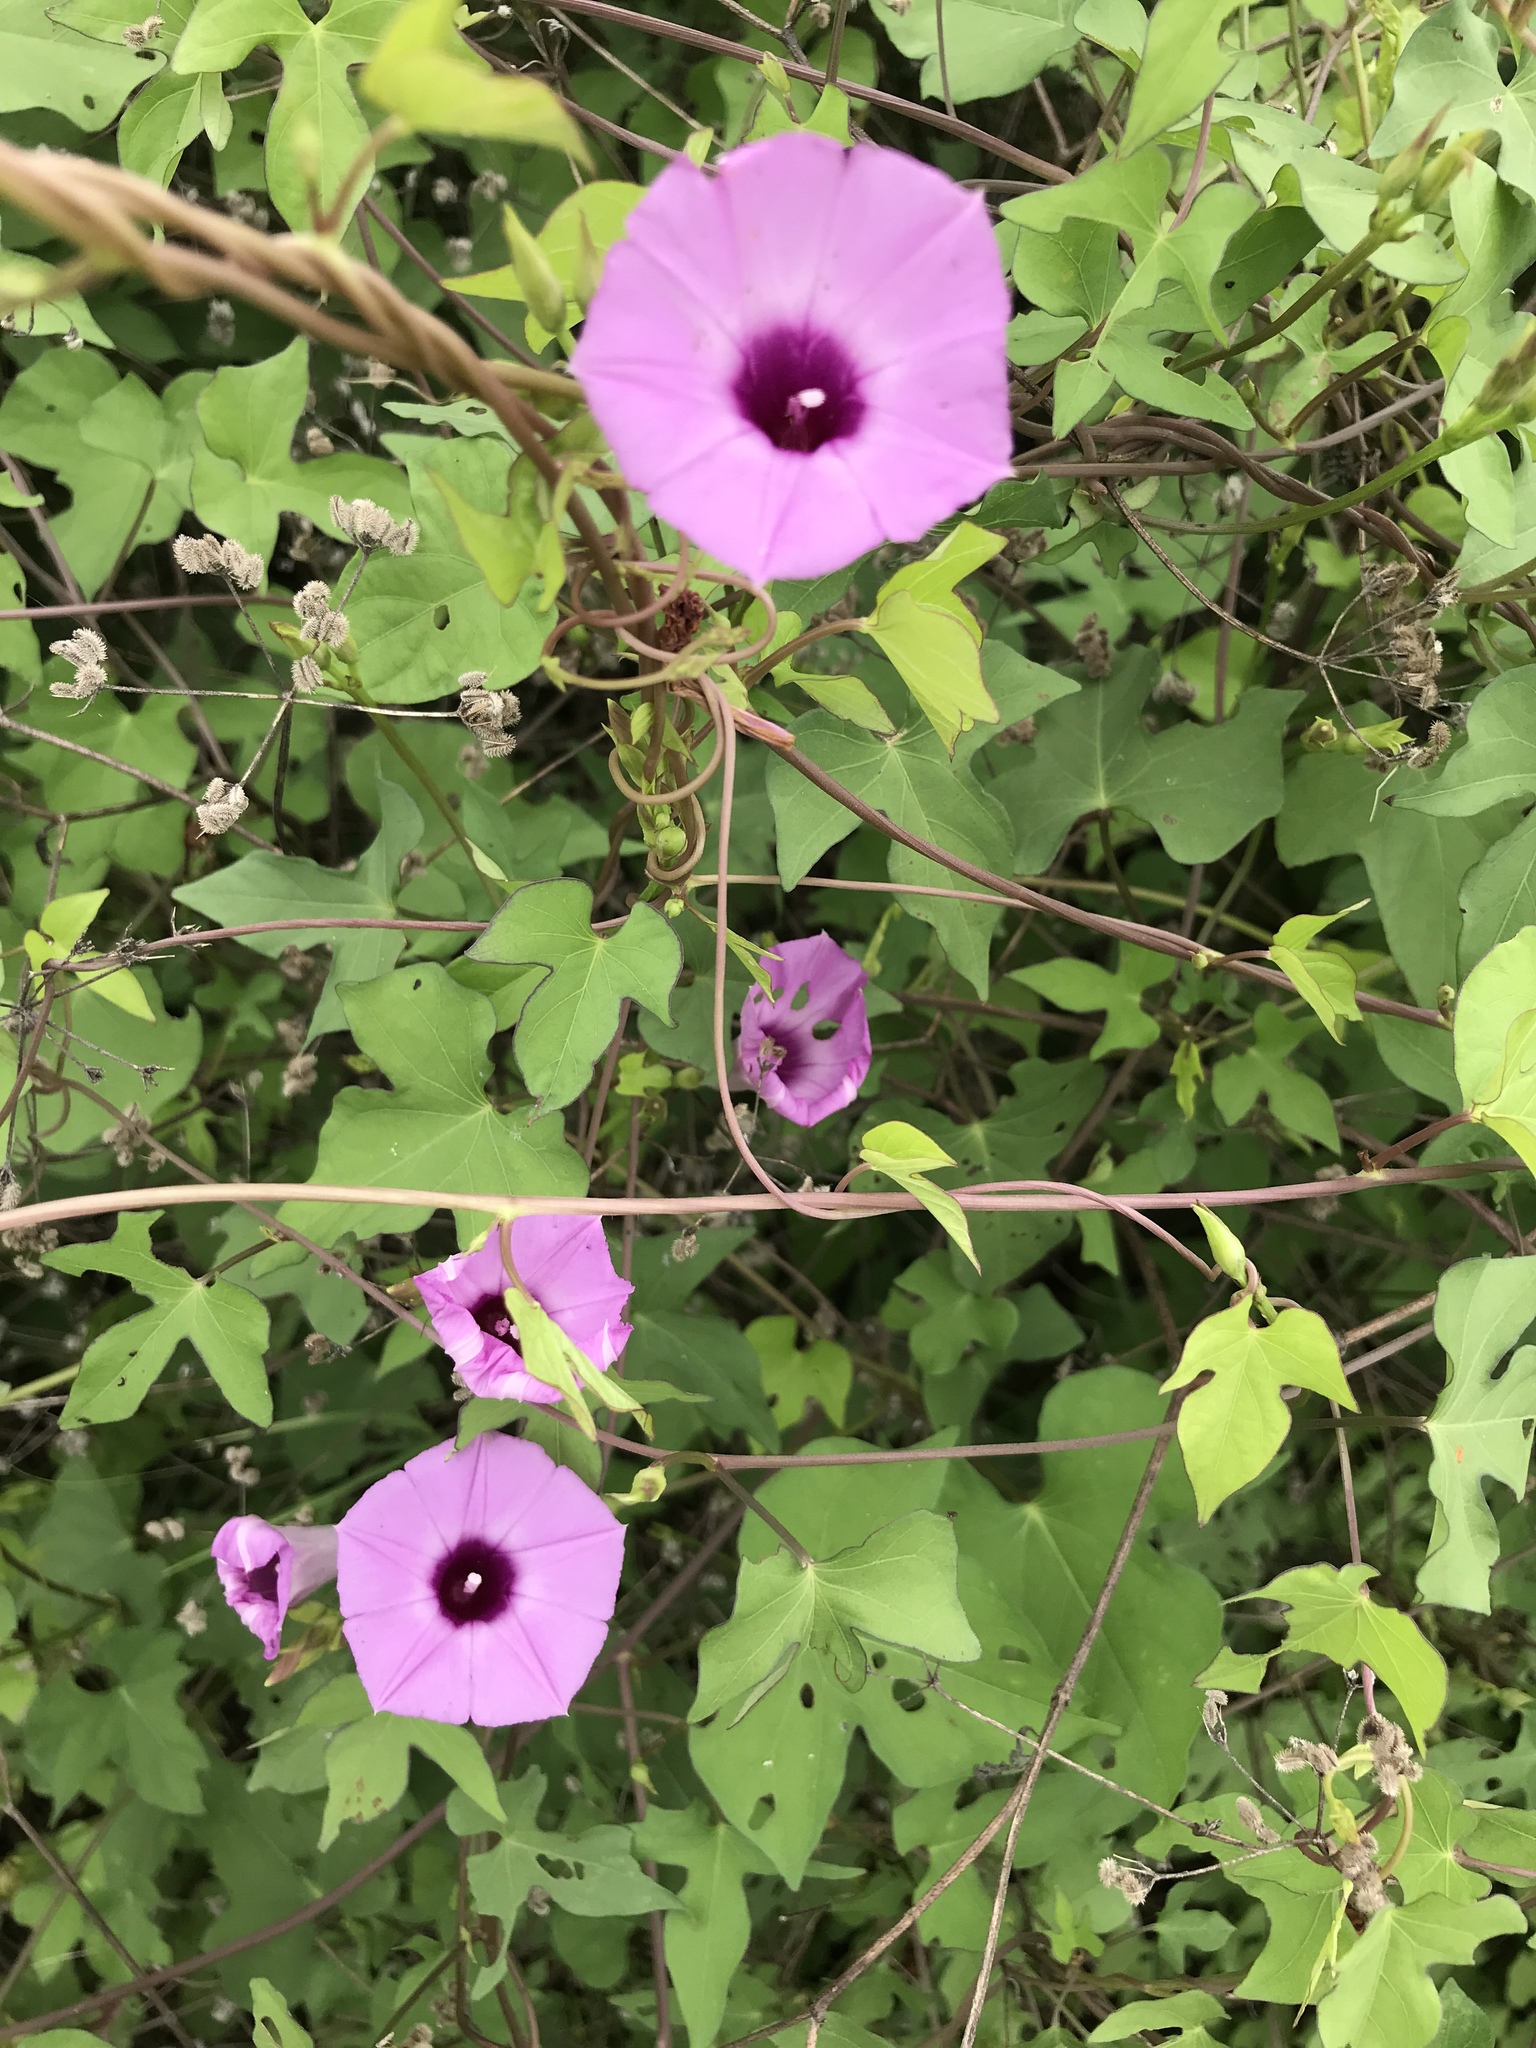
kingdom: Plantae
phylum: Tracheophyta
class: Magnoliopsida
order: Solanales
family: Convolvulaceae
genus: Ipomoea
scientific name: Ipomoea cordatotriloba
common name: Cotton morning glory
